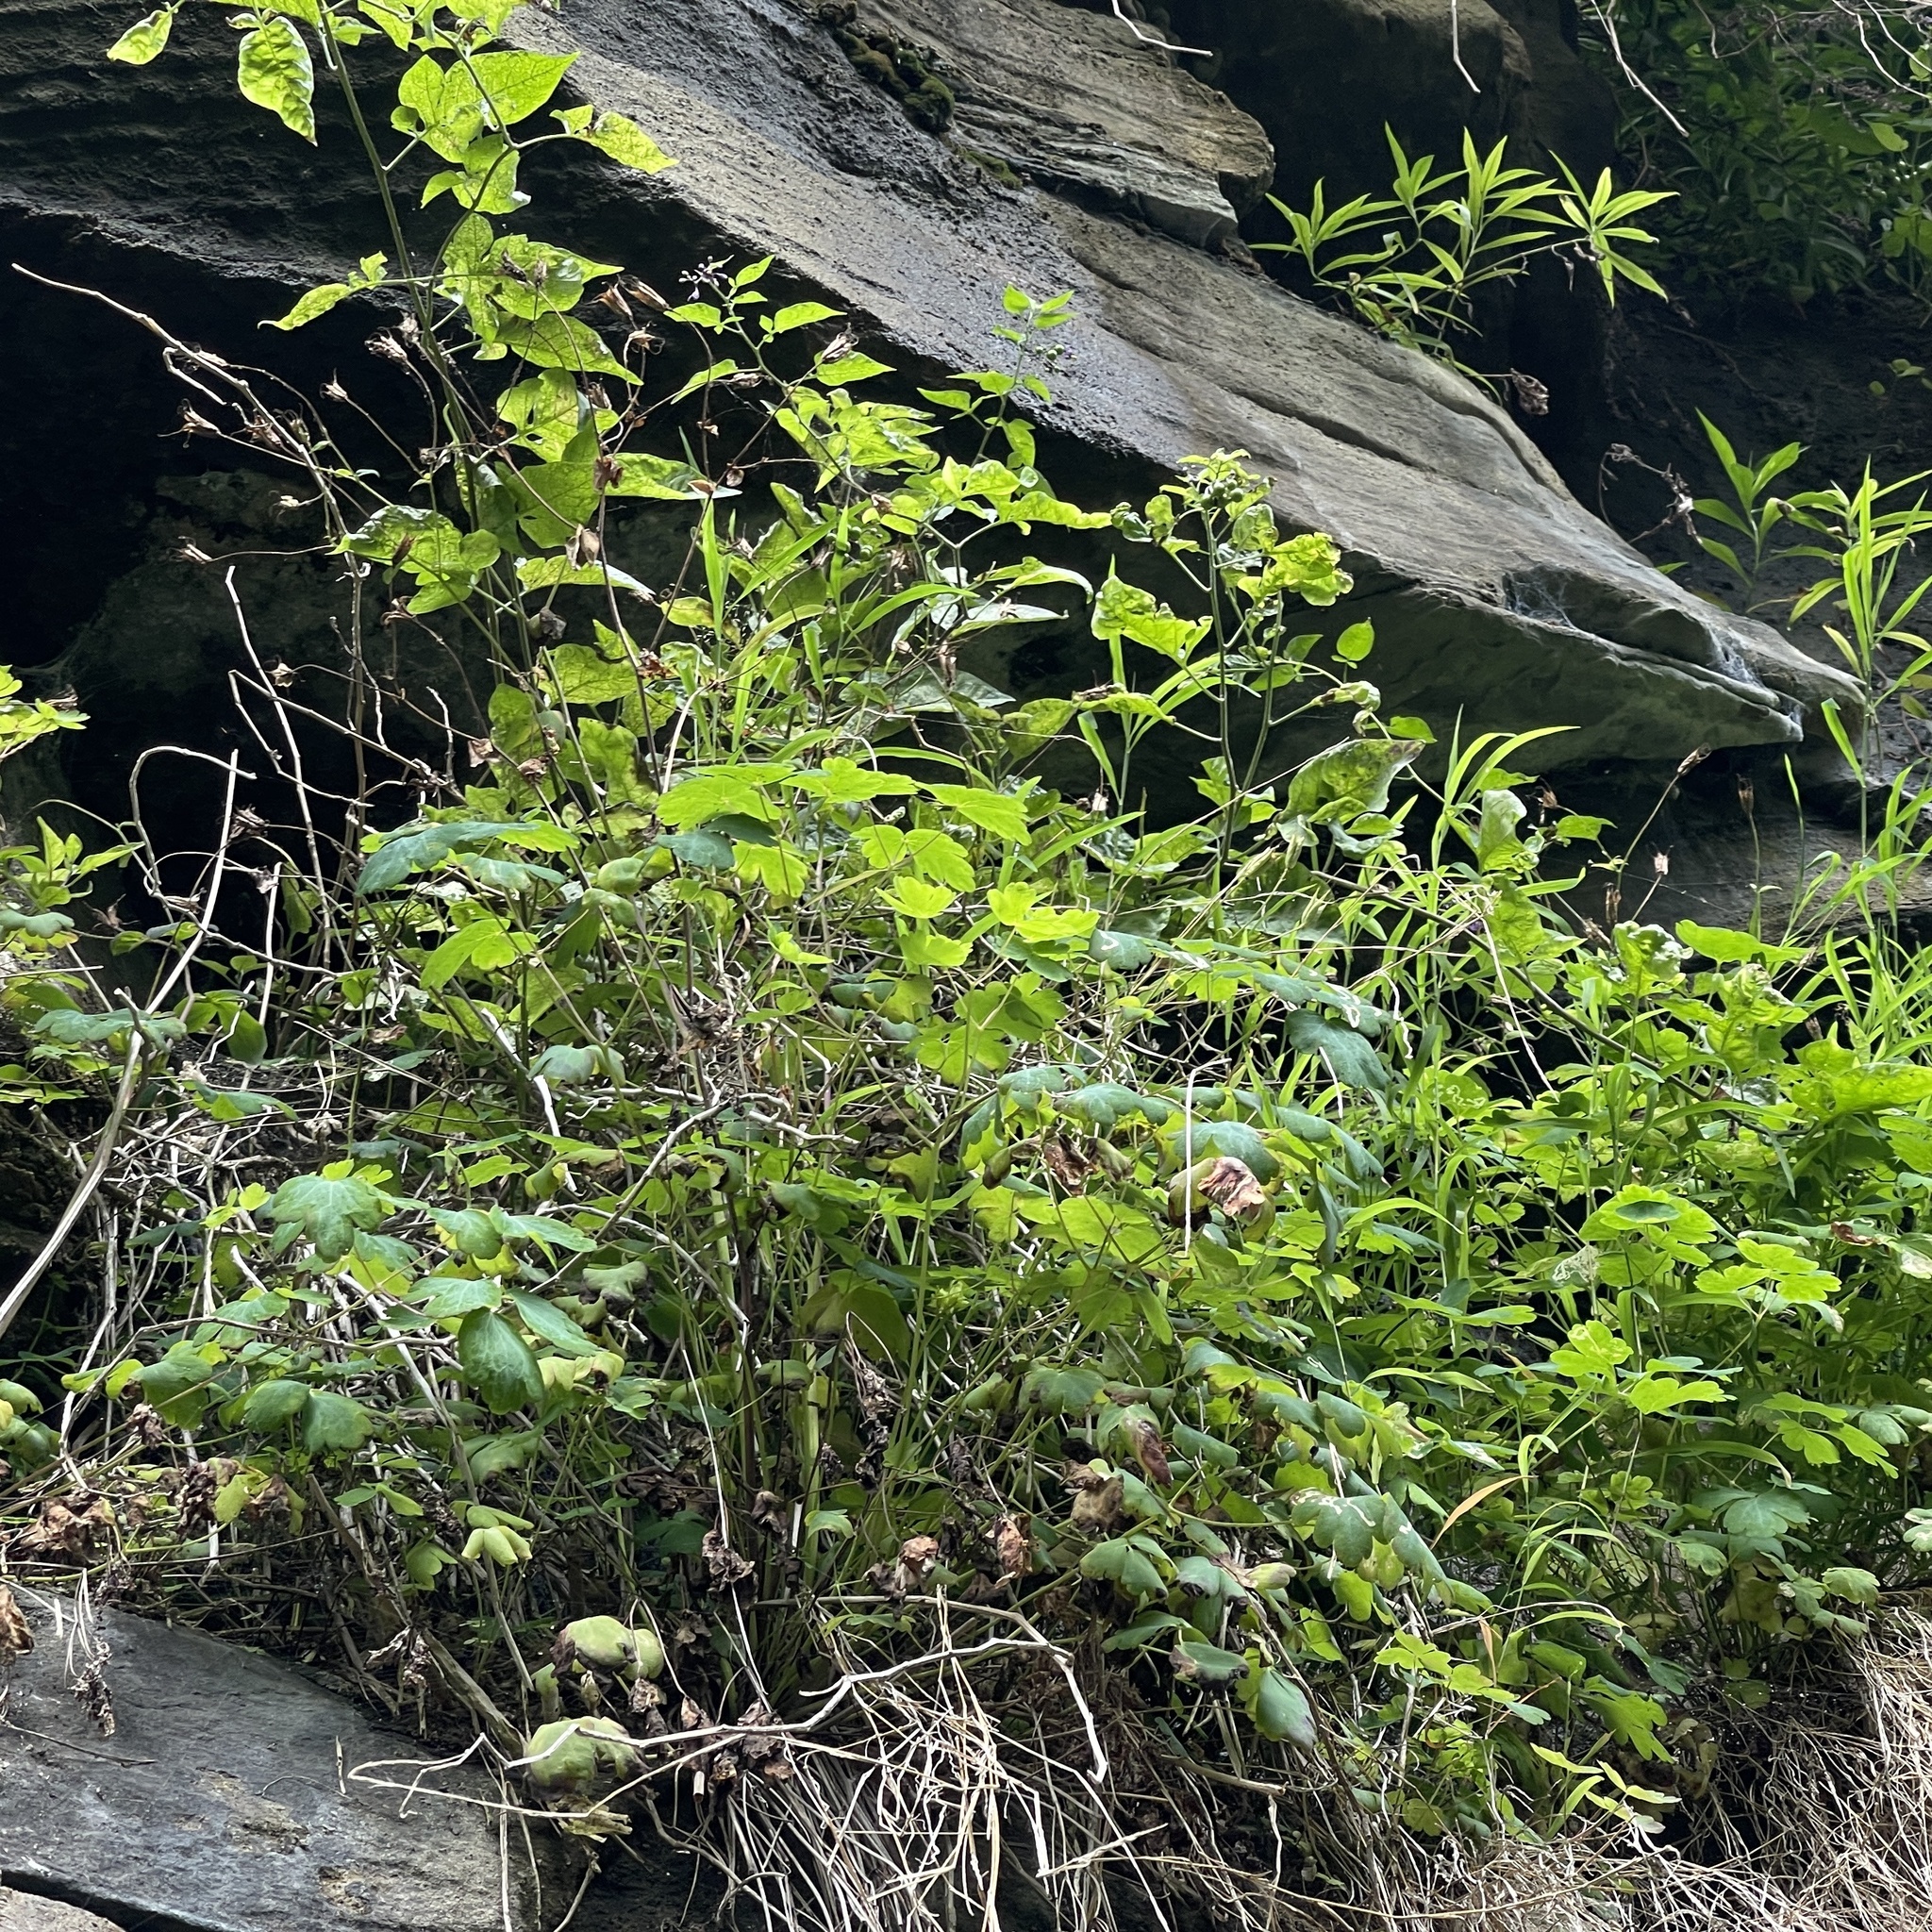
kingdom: Plantae
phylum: Tracheophyta
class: Magnoliopsida
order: Ranunculales
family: Ranunculaceae
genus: Aquilegia
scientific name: Aquilegia canadensis
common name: American columbine
